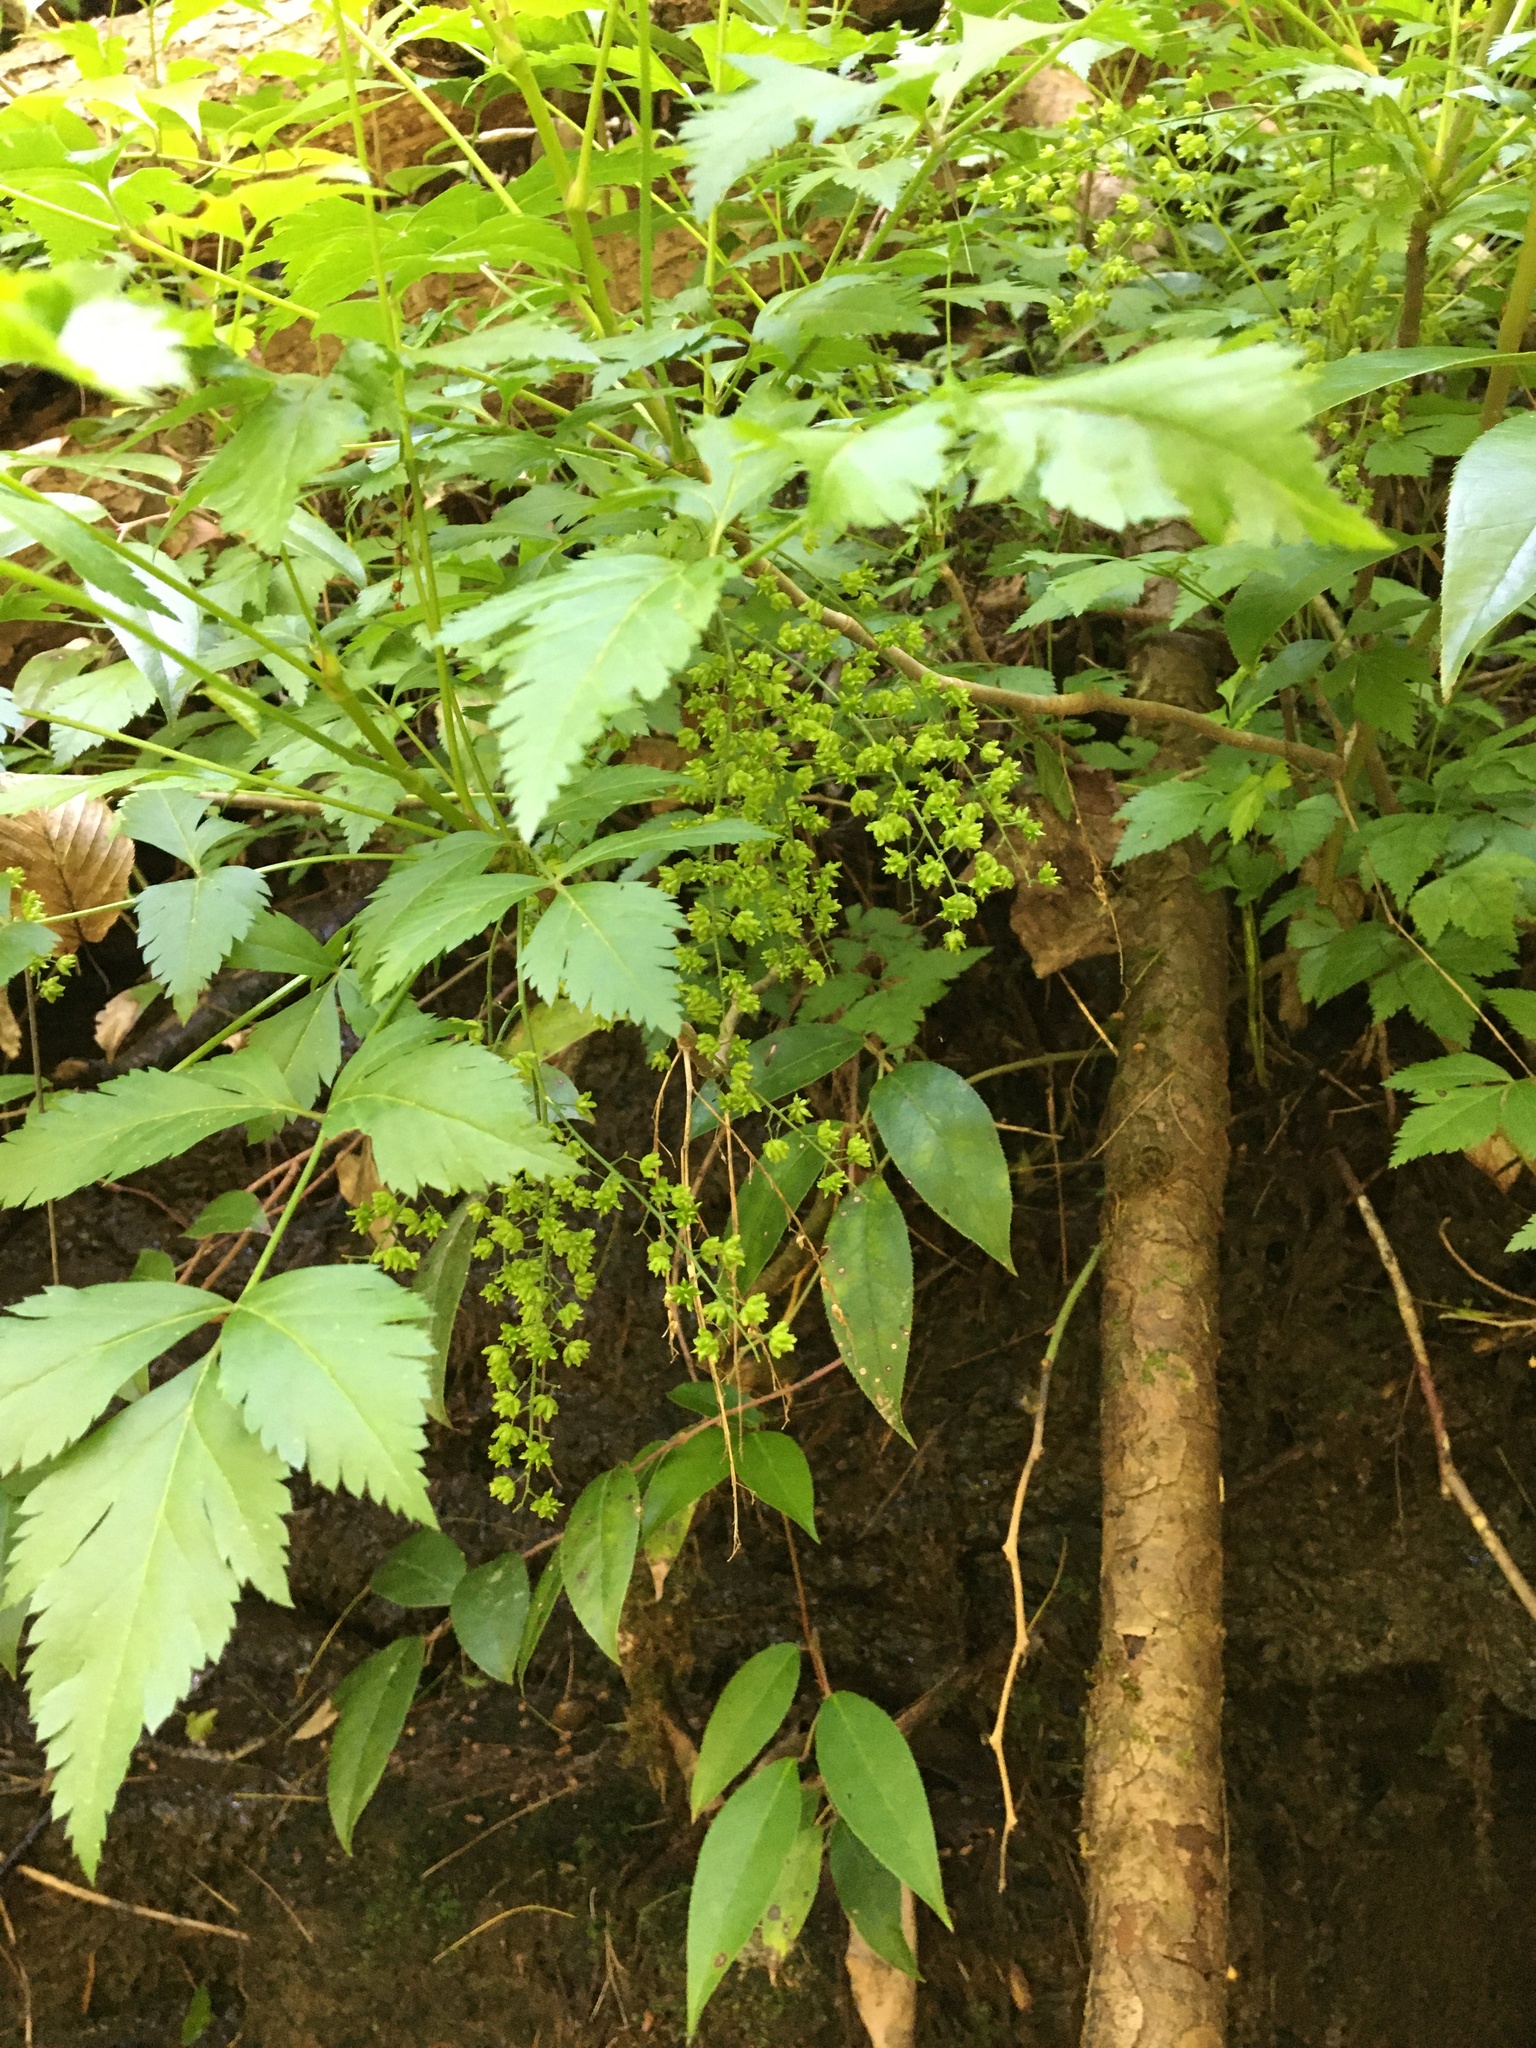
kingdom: Plantae
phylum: Tracheophyta
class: Magnoliopsida
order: Ranunculales
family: Ranunculaceae
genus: Xanthorhiza
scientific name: Xanthorhiza simplicissima
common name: Yellowroot
